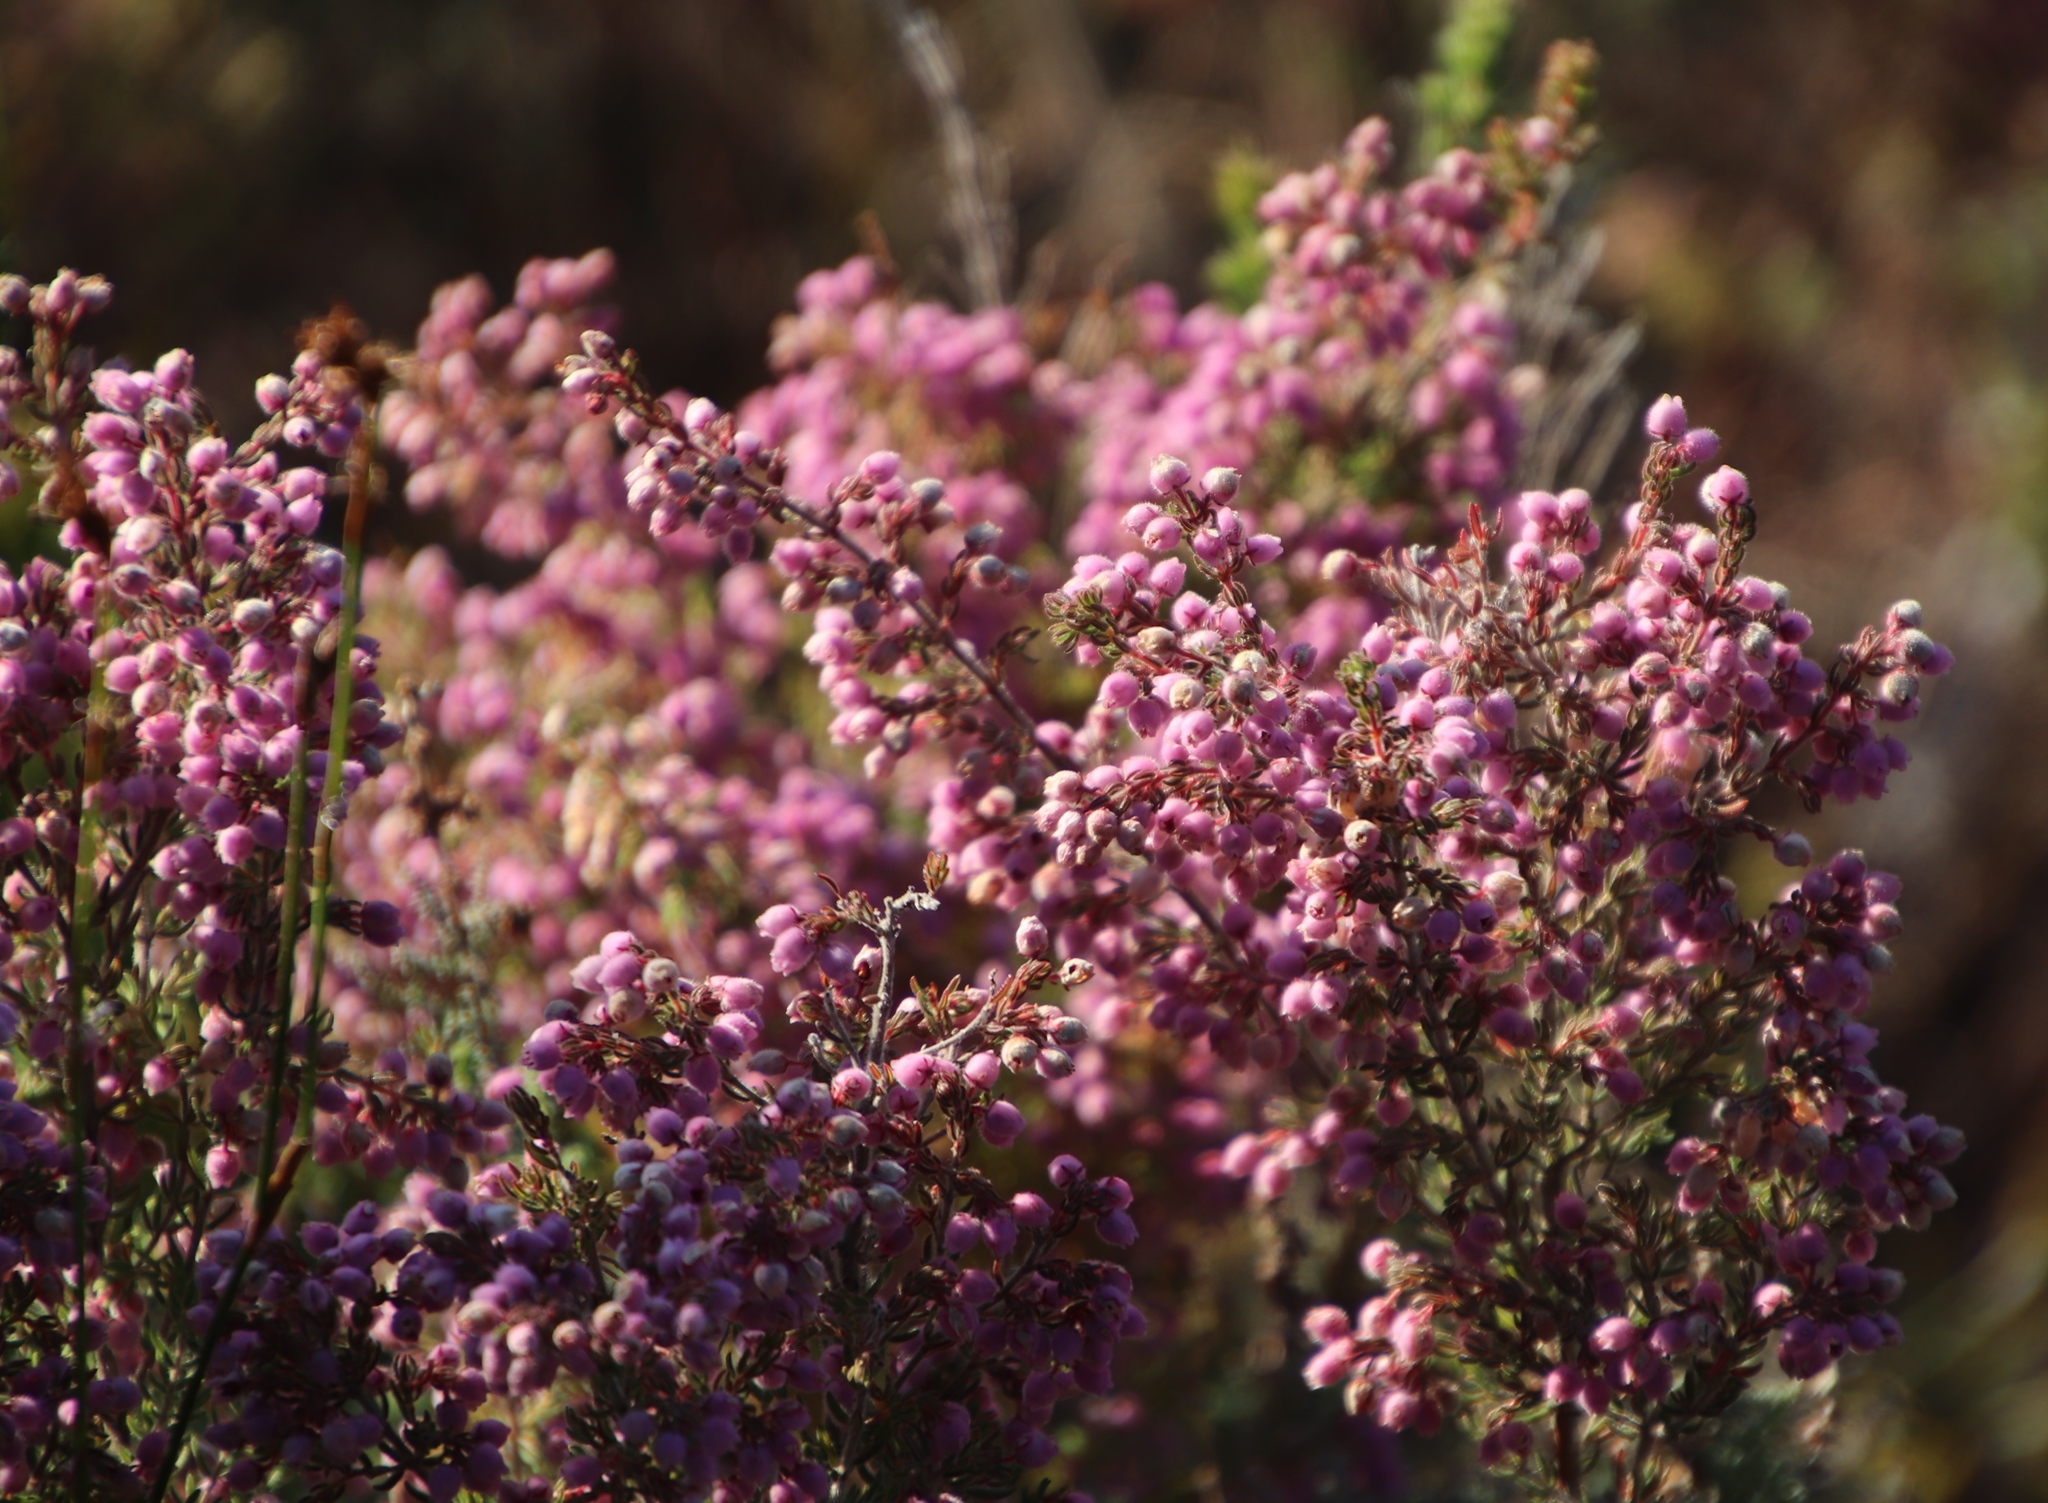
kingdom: Plantae
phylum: Tracheophyta
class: Magnoliopsida
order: Ericales
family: Ericaceae
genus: Erica
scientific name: Erica hirtiflora
